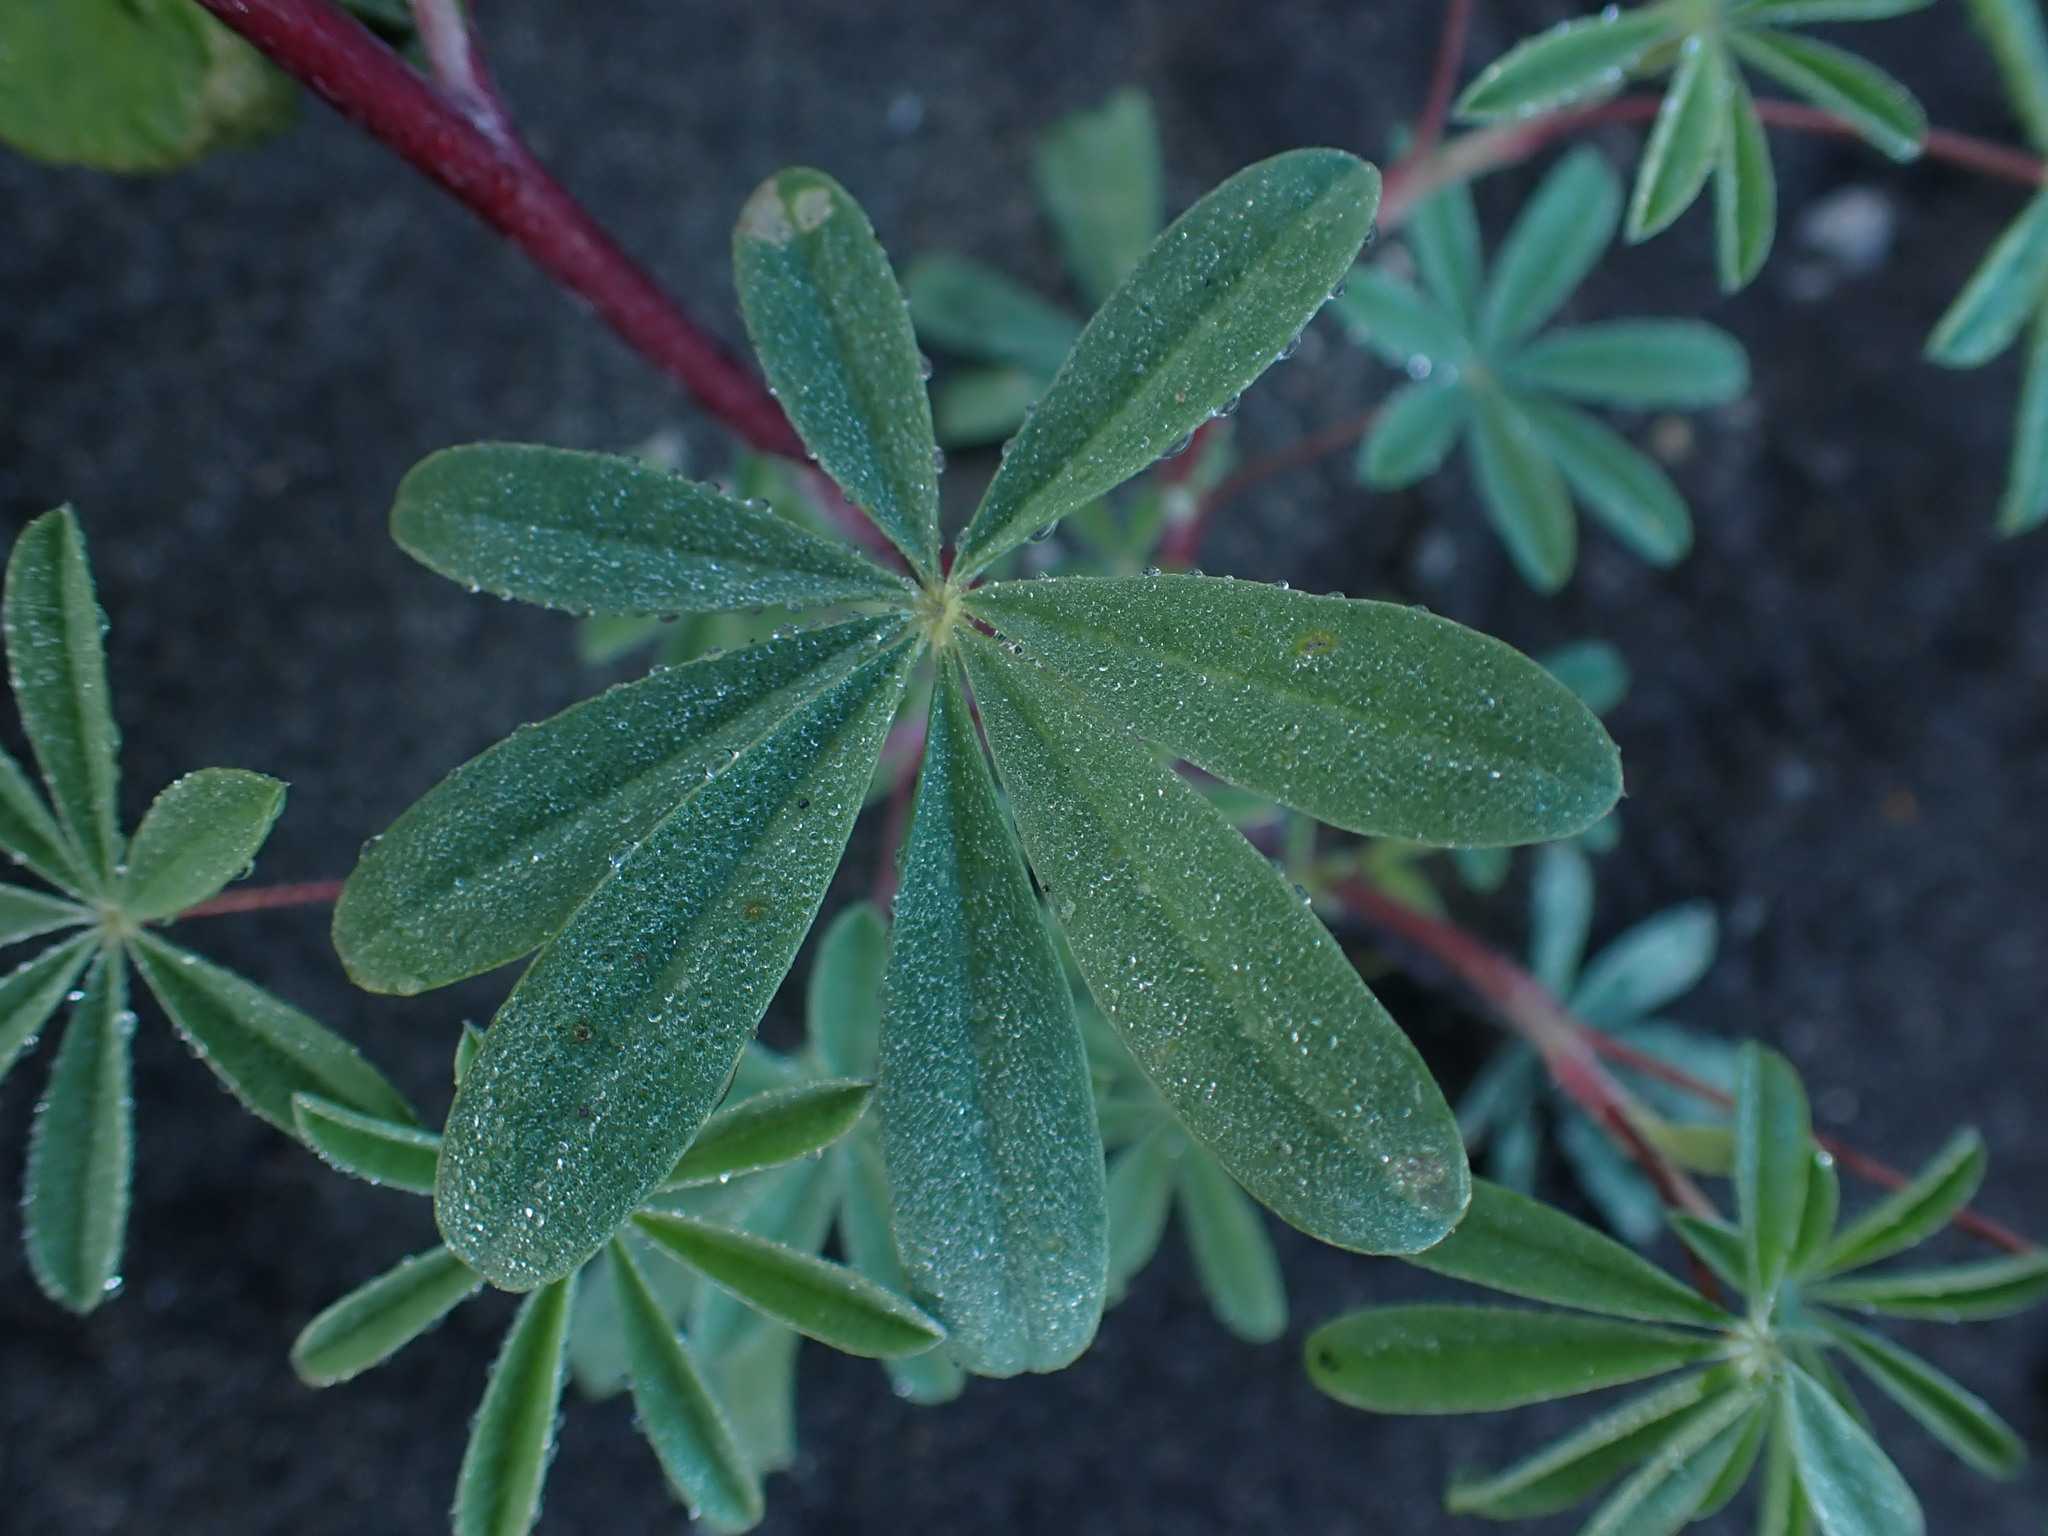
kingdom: Plantae
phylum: Tracheophyta
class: Magnoliopsida
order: Fabales
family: Fabaceae
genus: Lupinus
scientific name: Lupinus arboreus
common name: Yellow bush lupine
